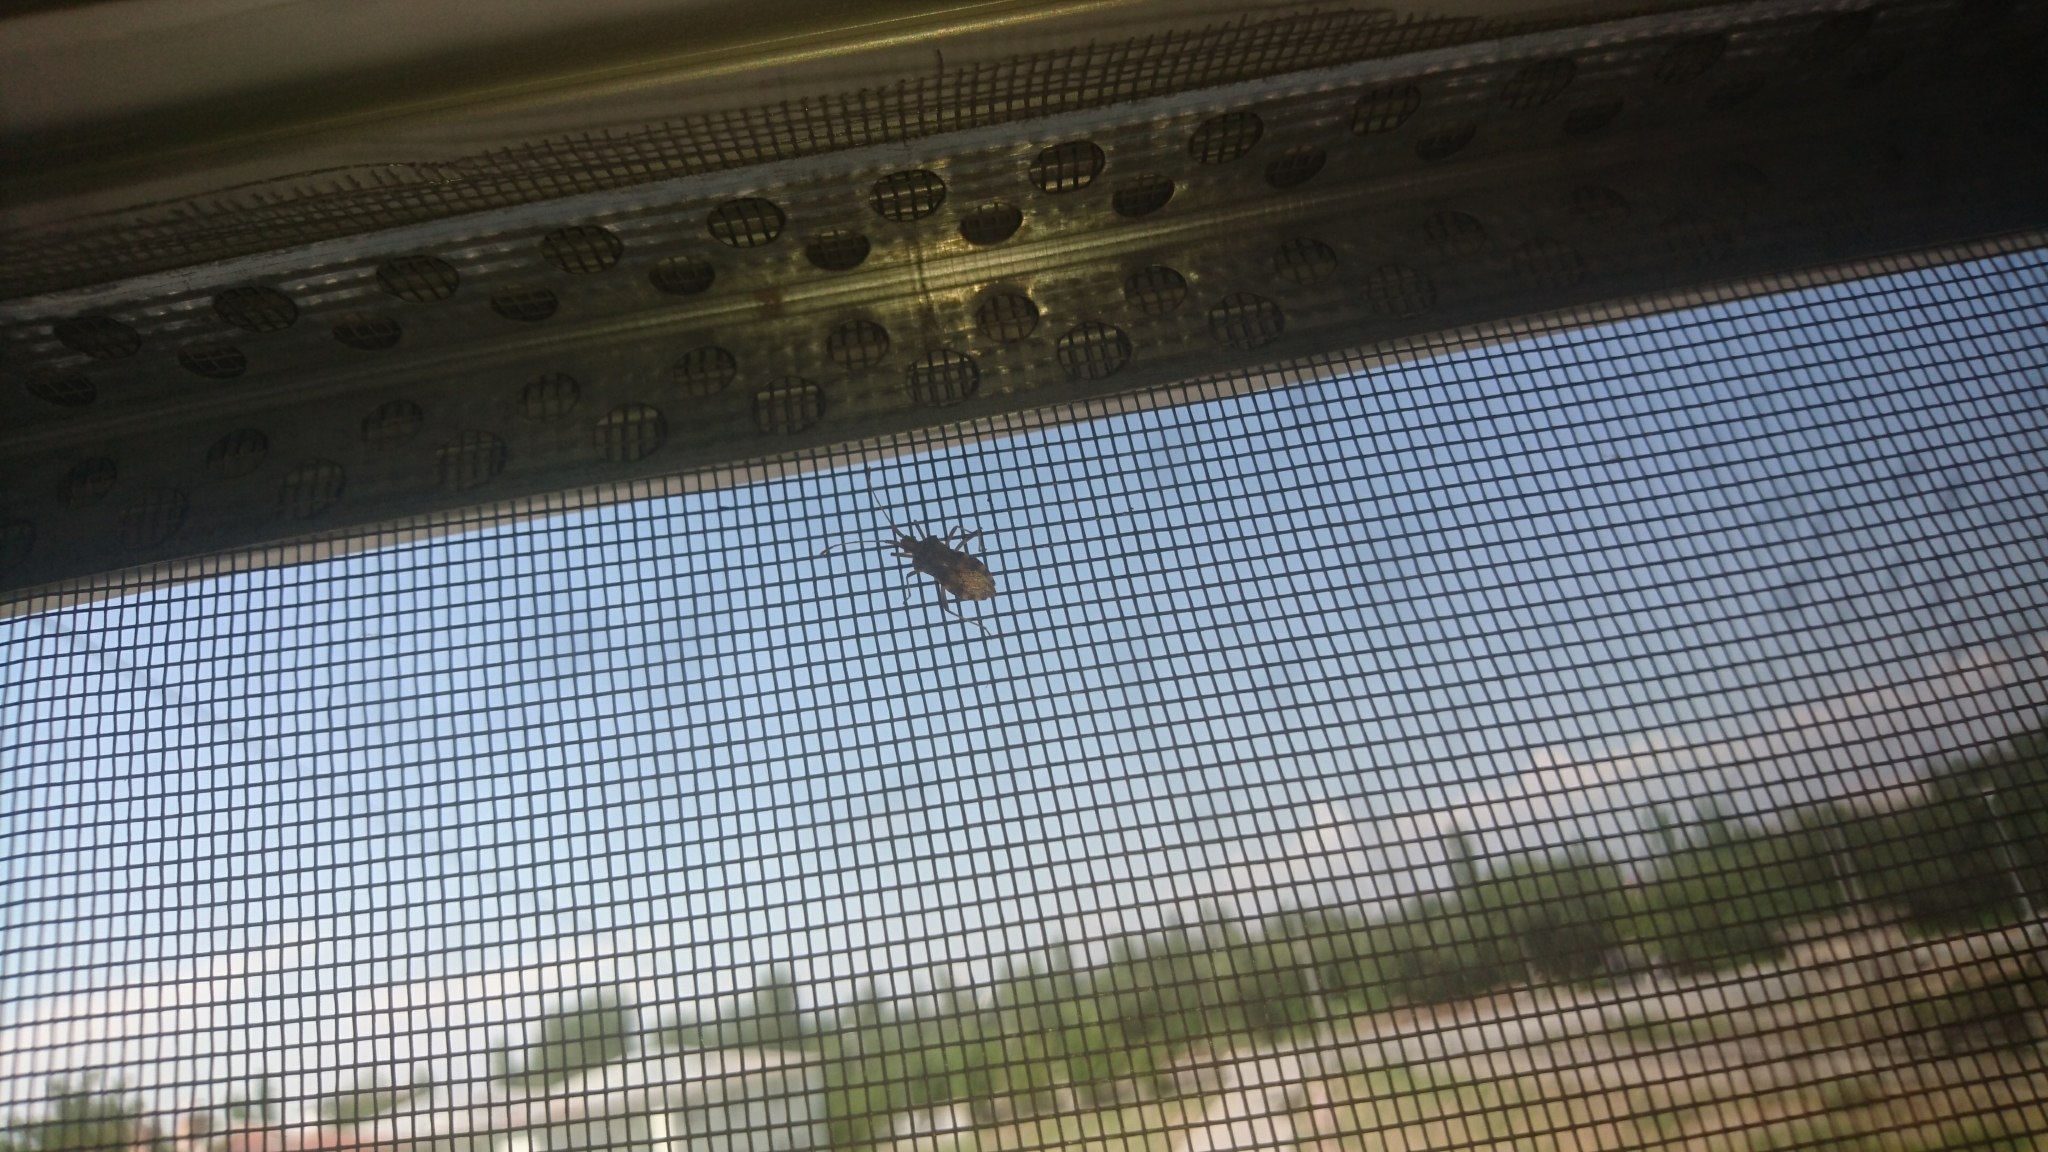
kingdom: Animalia
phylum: Arthropoda
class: Insecta
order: Hemiptera
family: Coreidae
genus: Centrocoris
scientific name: Centrocoris volxemi
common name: Leaf-footed bug
